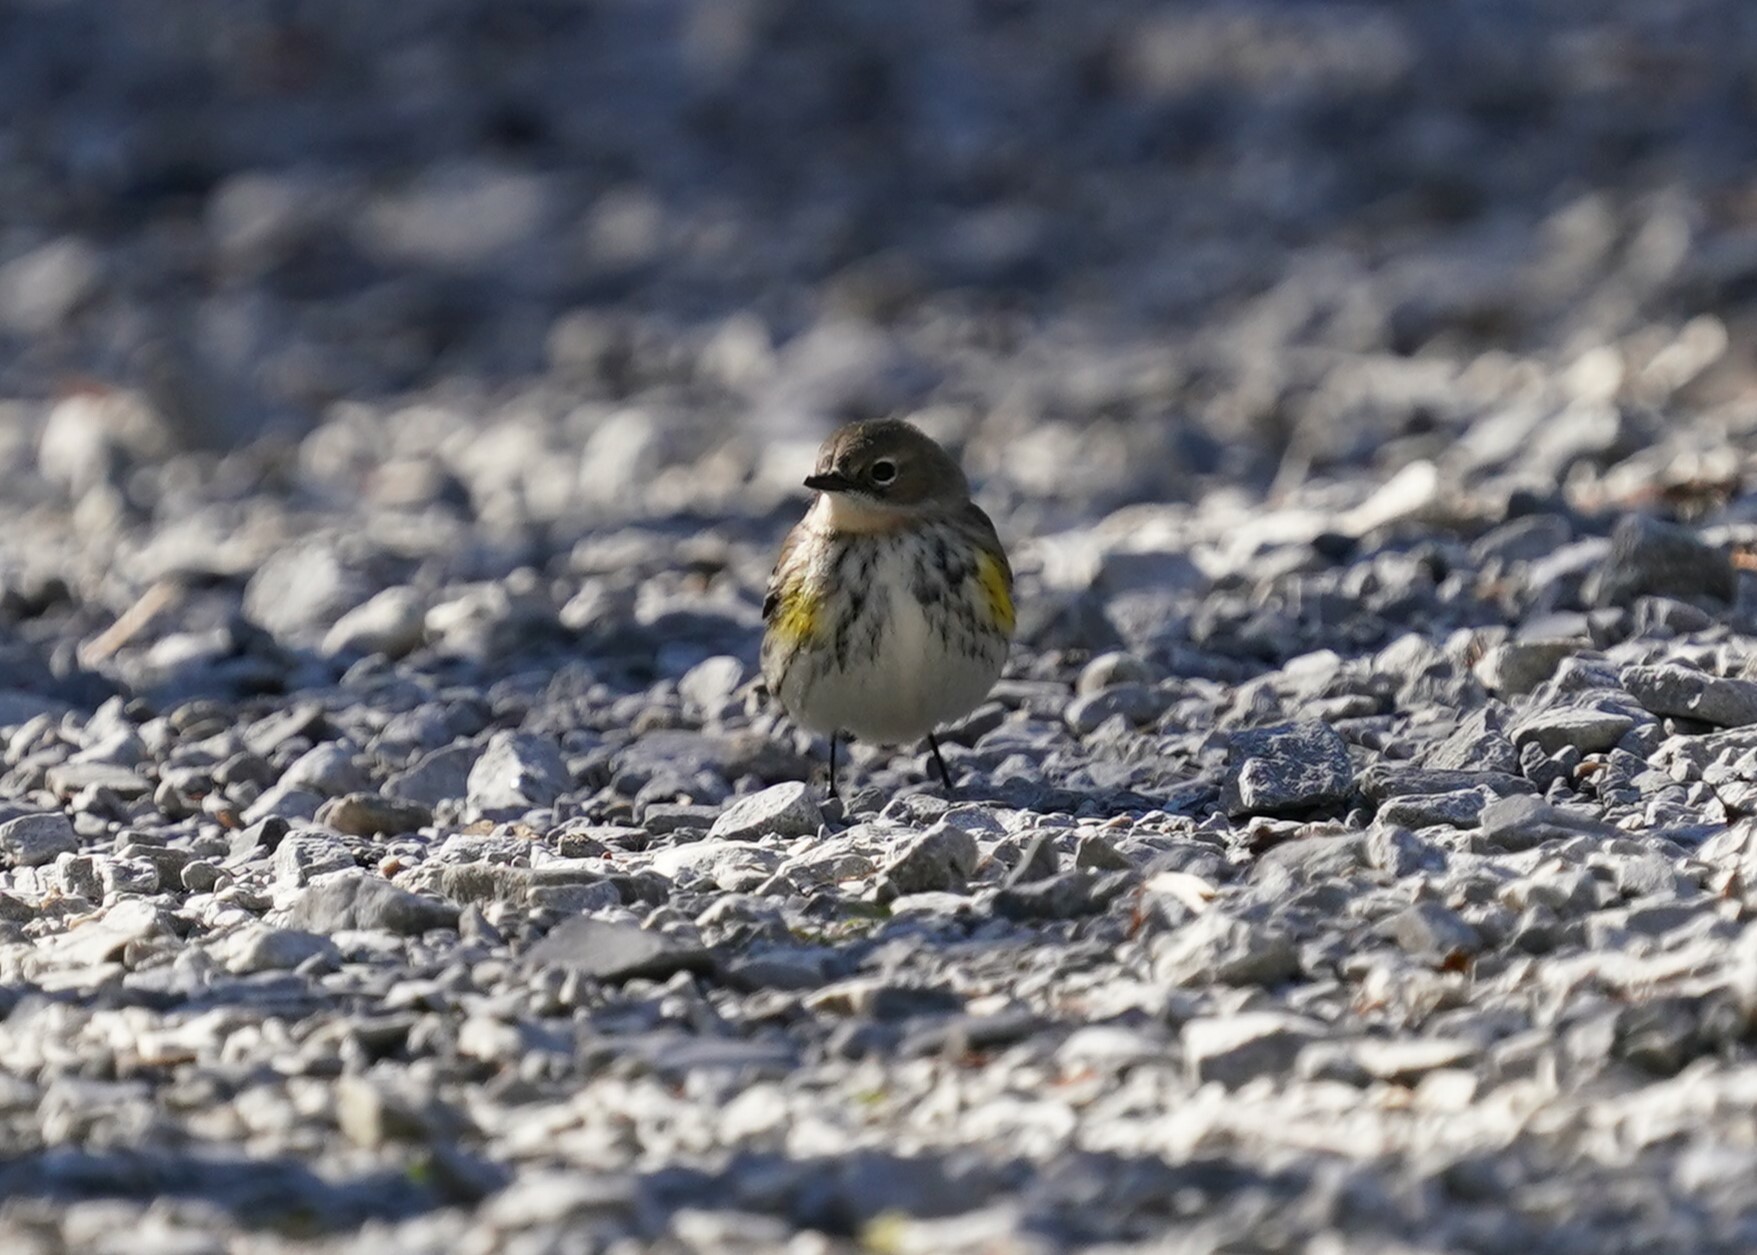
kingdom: Animalia
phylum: Chordata
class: Aves
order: Passeriformes
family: Parulidae
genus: Setophaga
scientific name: Setophaga coronata
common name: Myrtle warbler
